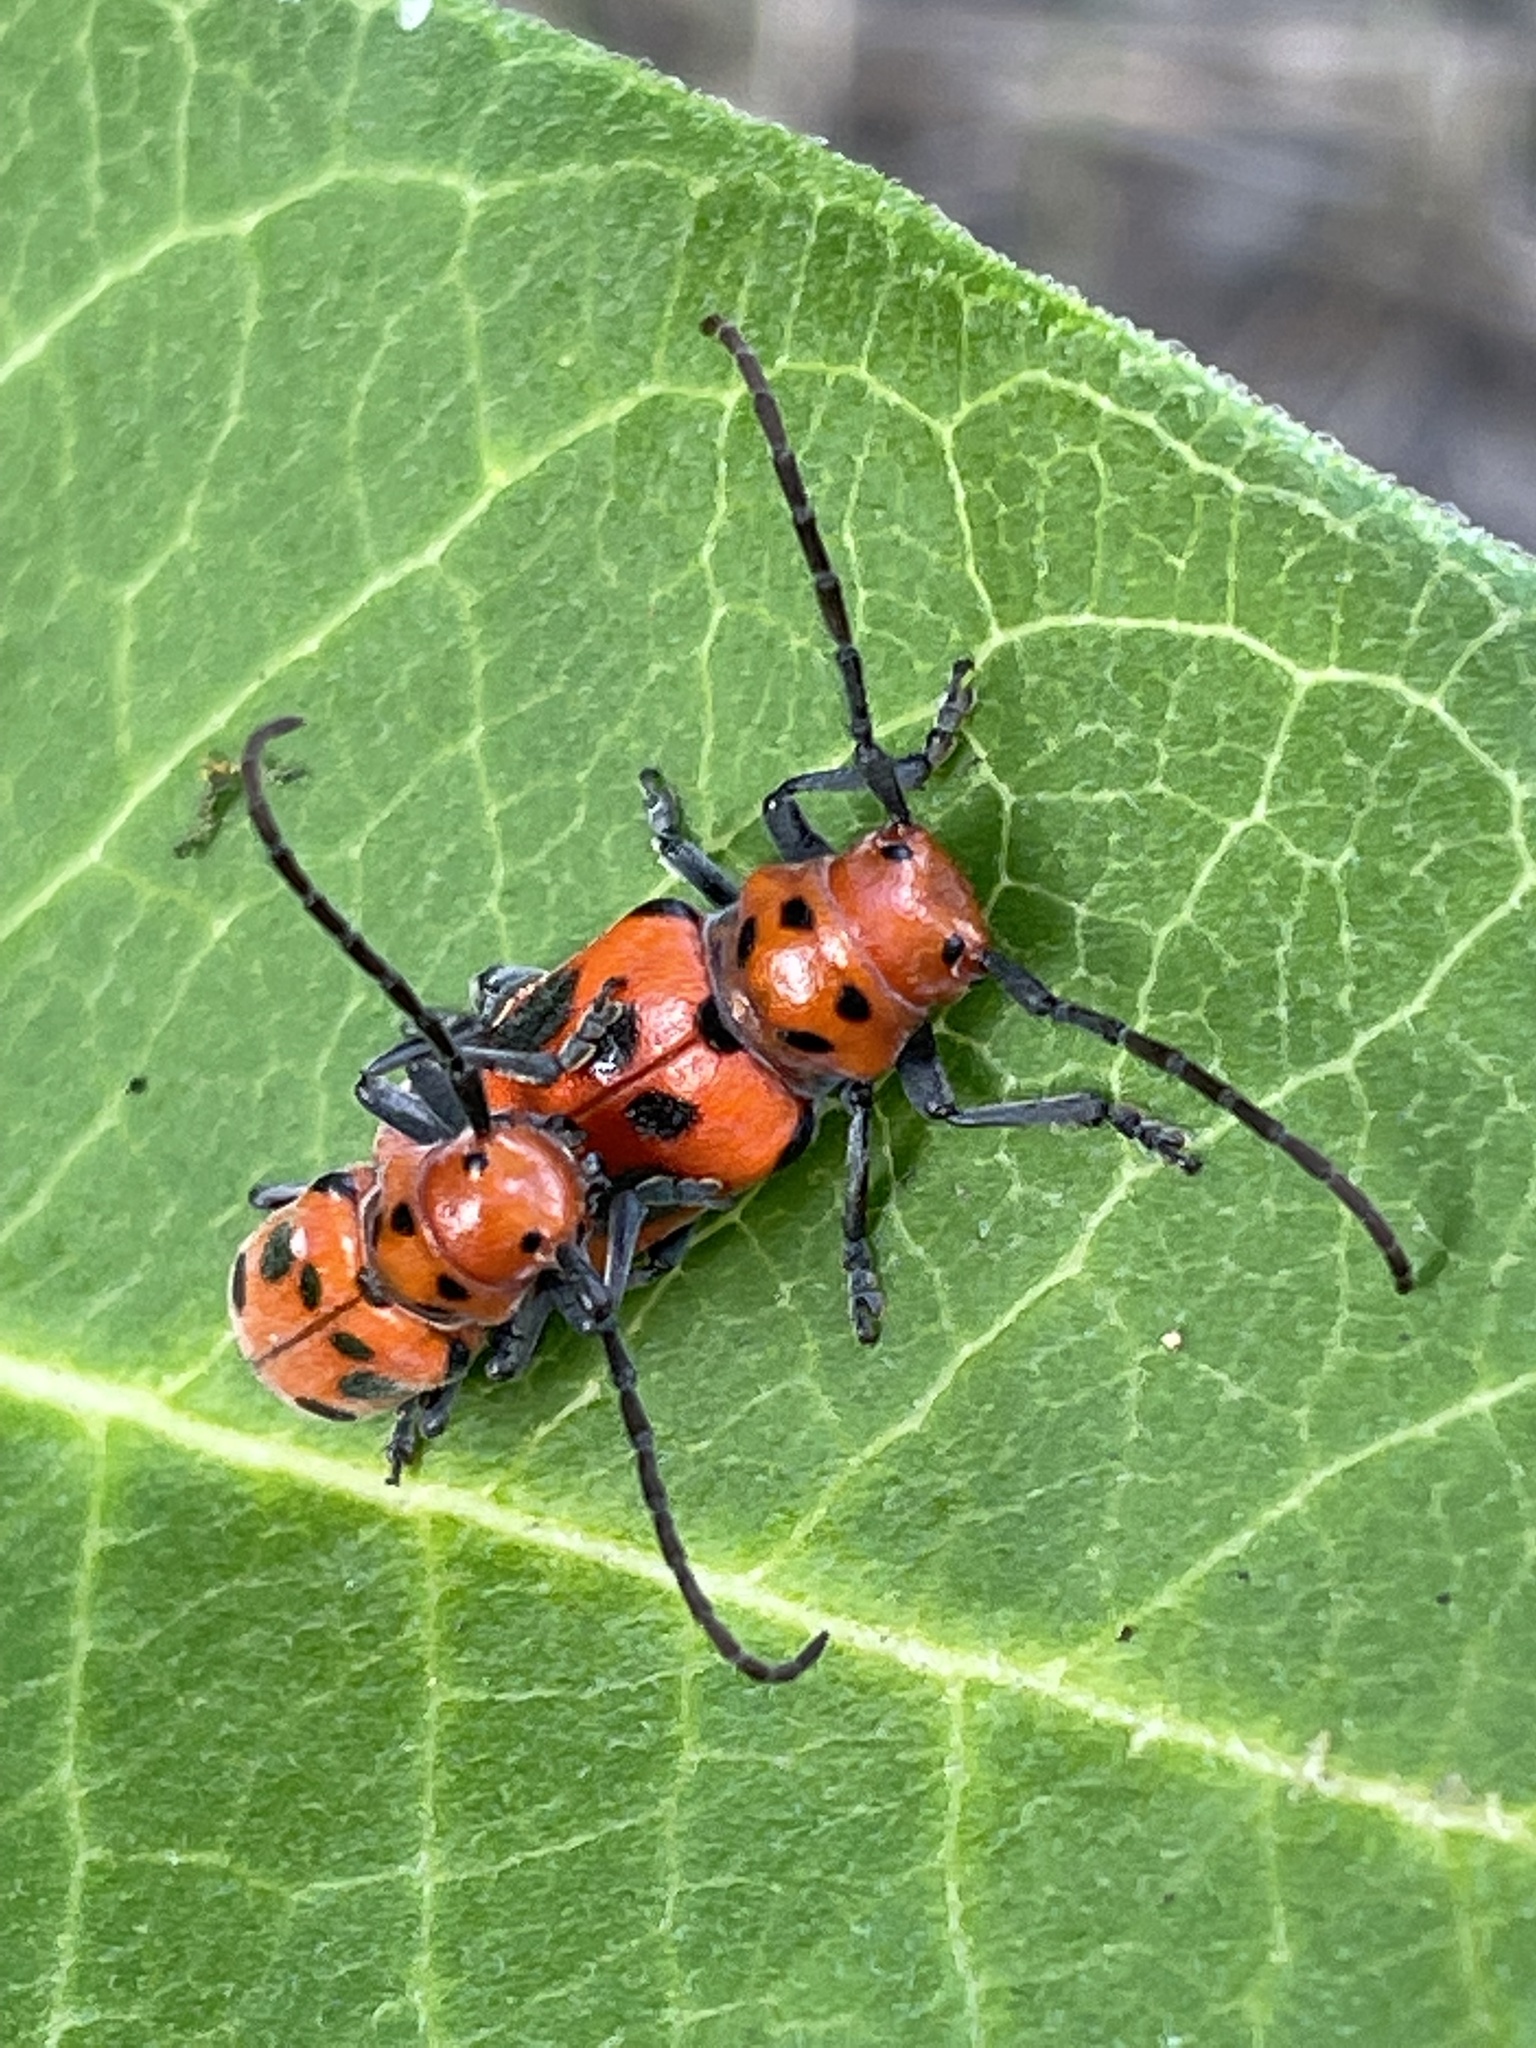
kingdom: Animalia
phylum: Arthropoda
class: Insecta
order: Coleoptera
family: Cerambycidae
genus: Tetraopes
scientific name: Tetraopes tetrophthalmus
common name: Red milkweed beetle
